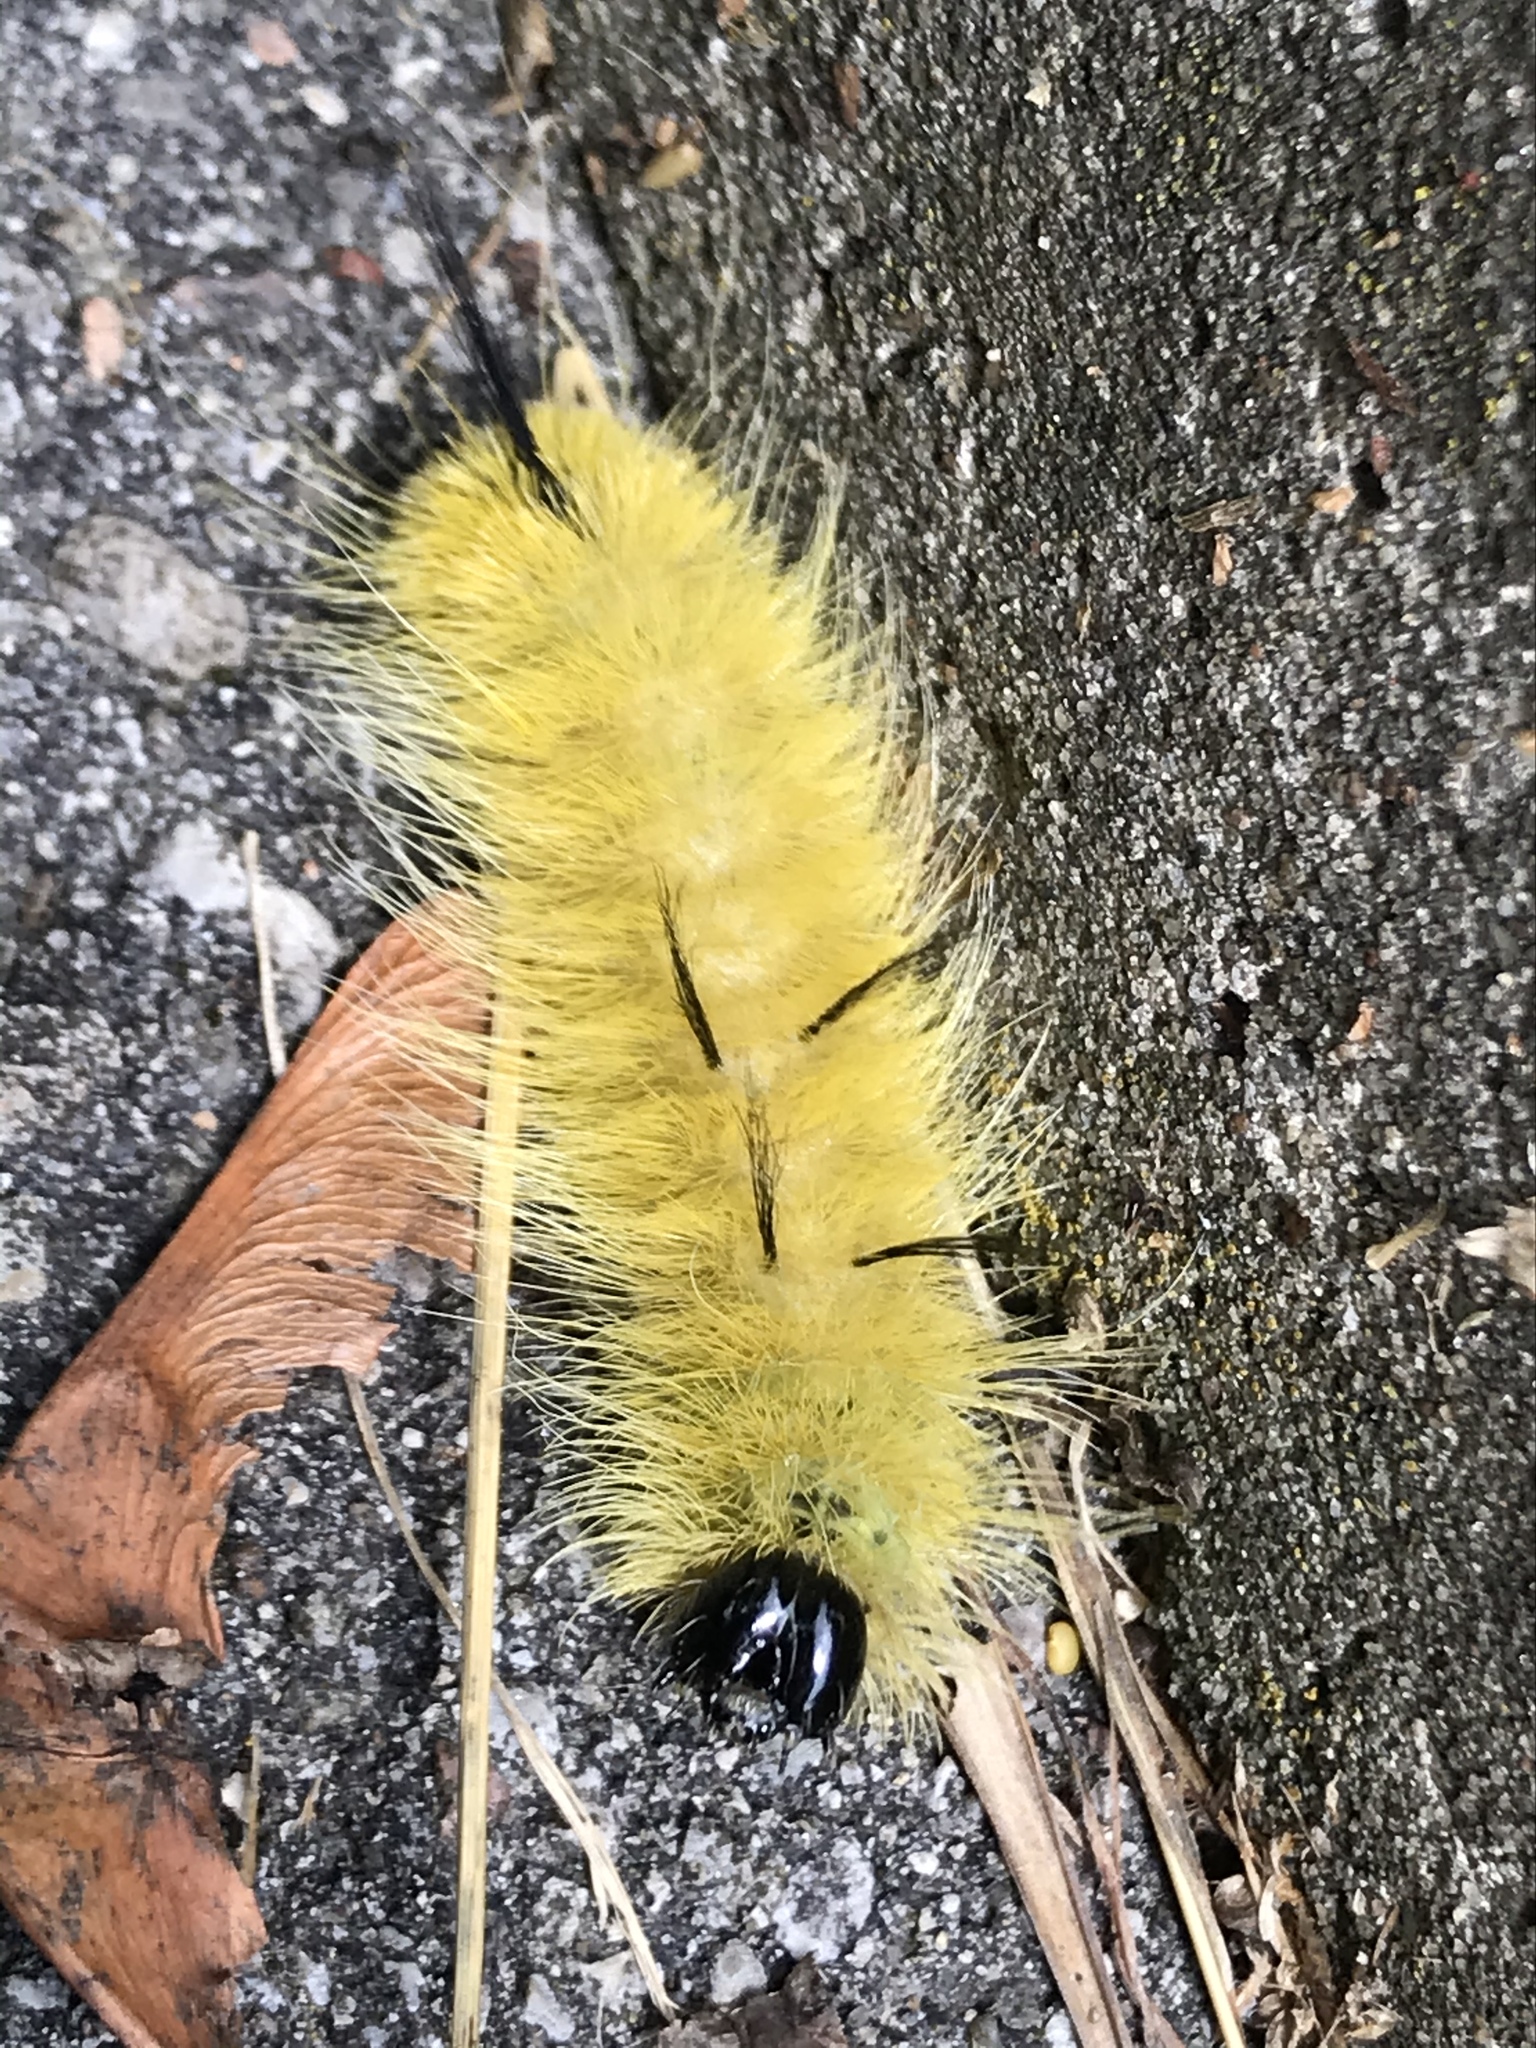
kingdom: Animalia
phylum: Arthropoda
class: Insecta
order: Lepidoptera
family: Noctuidae
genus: Acronicta
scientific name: Acronicta americana
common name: American dagger
